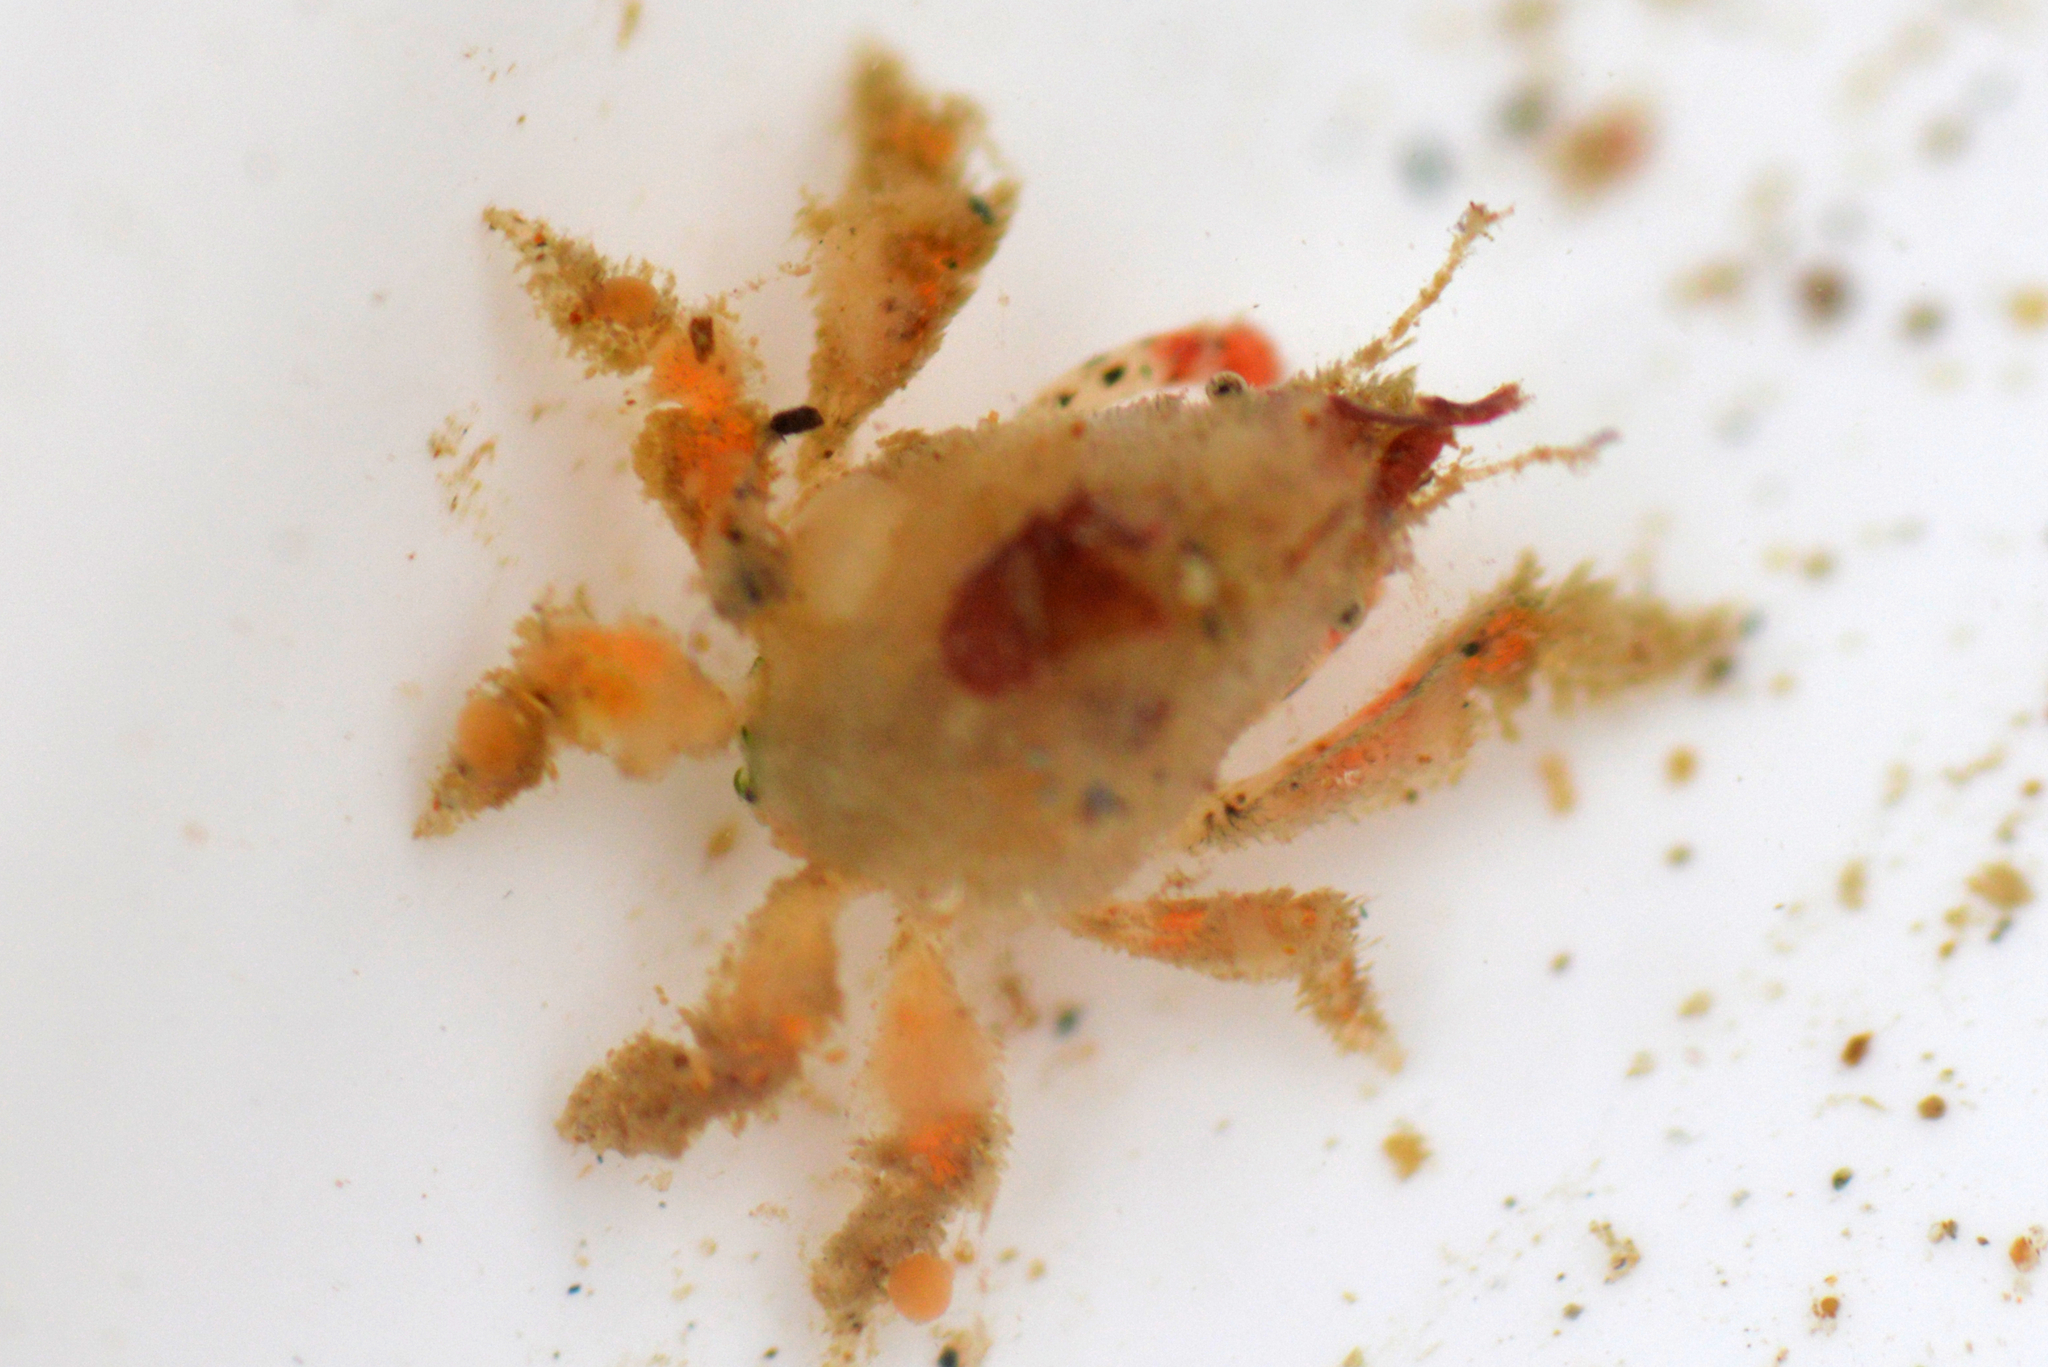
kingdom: Animalia
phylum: Arthropoda
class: Malacostraca
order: Decapoda
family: Epialtidae
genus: Pelia
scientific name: Pelia tumida
